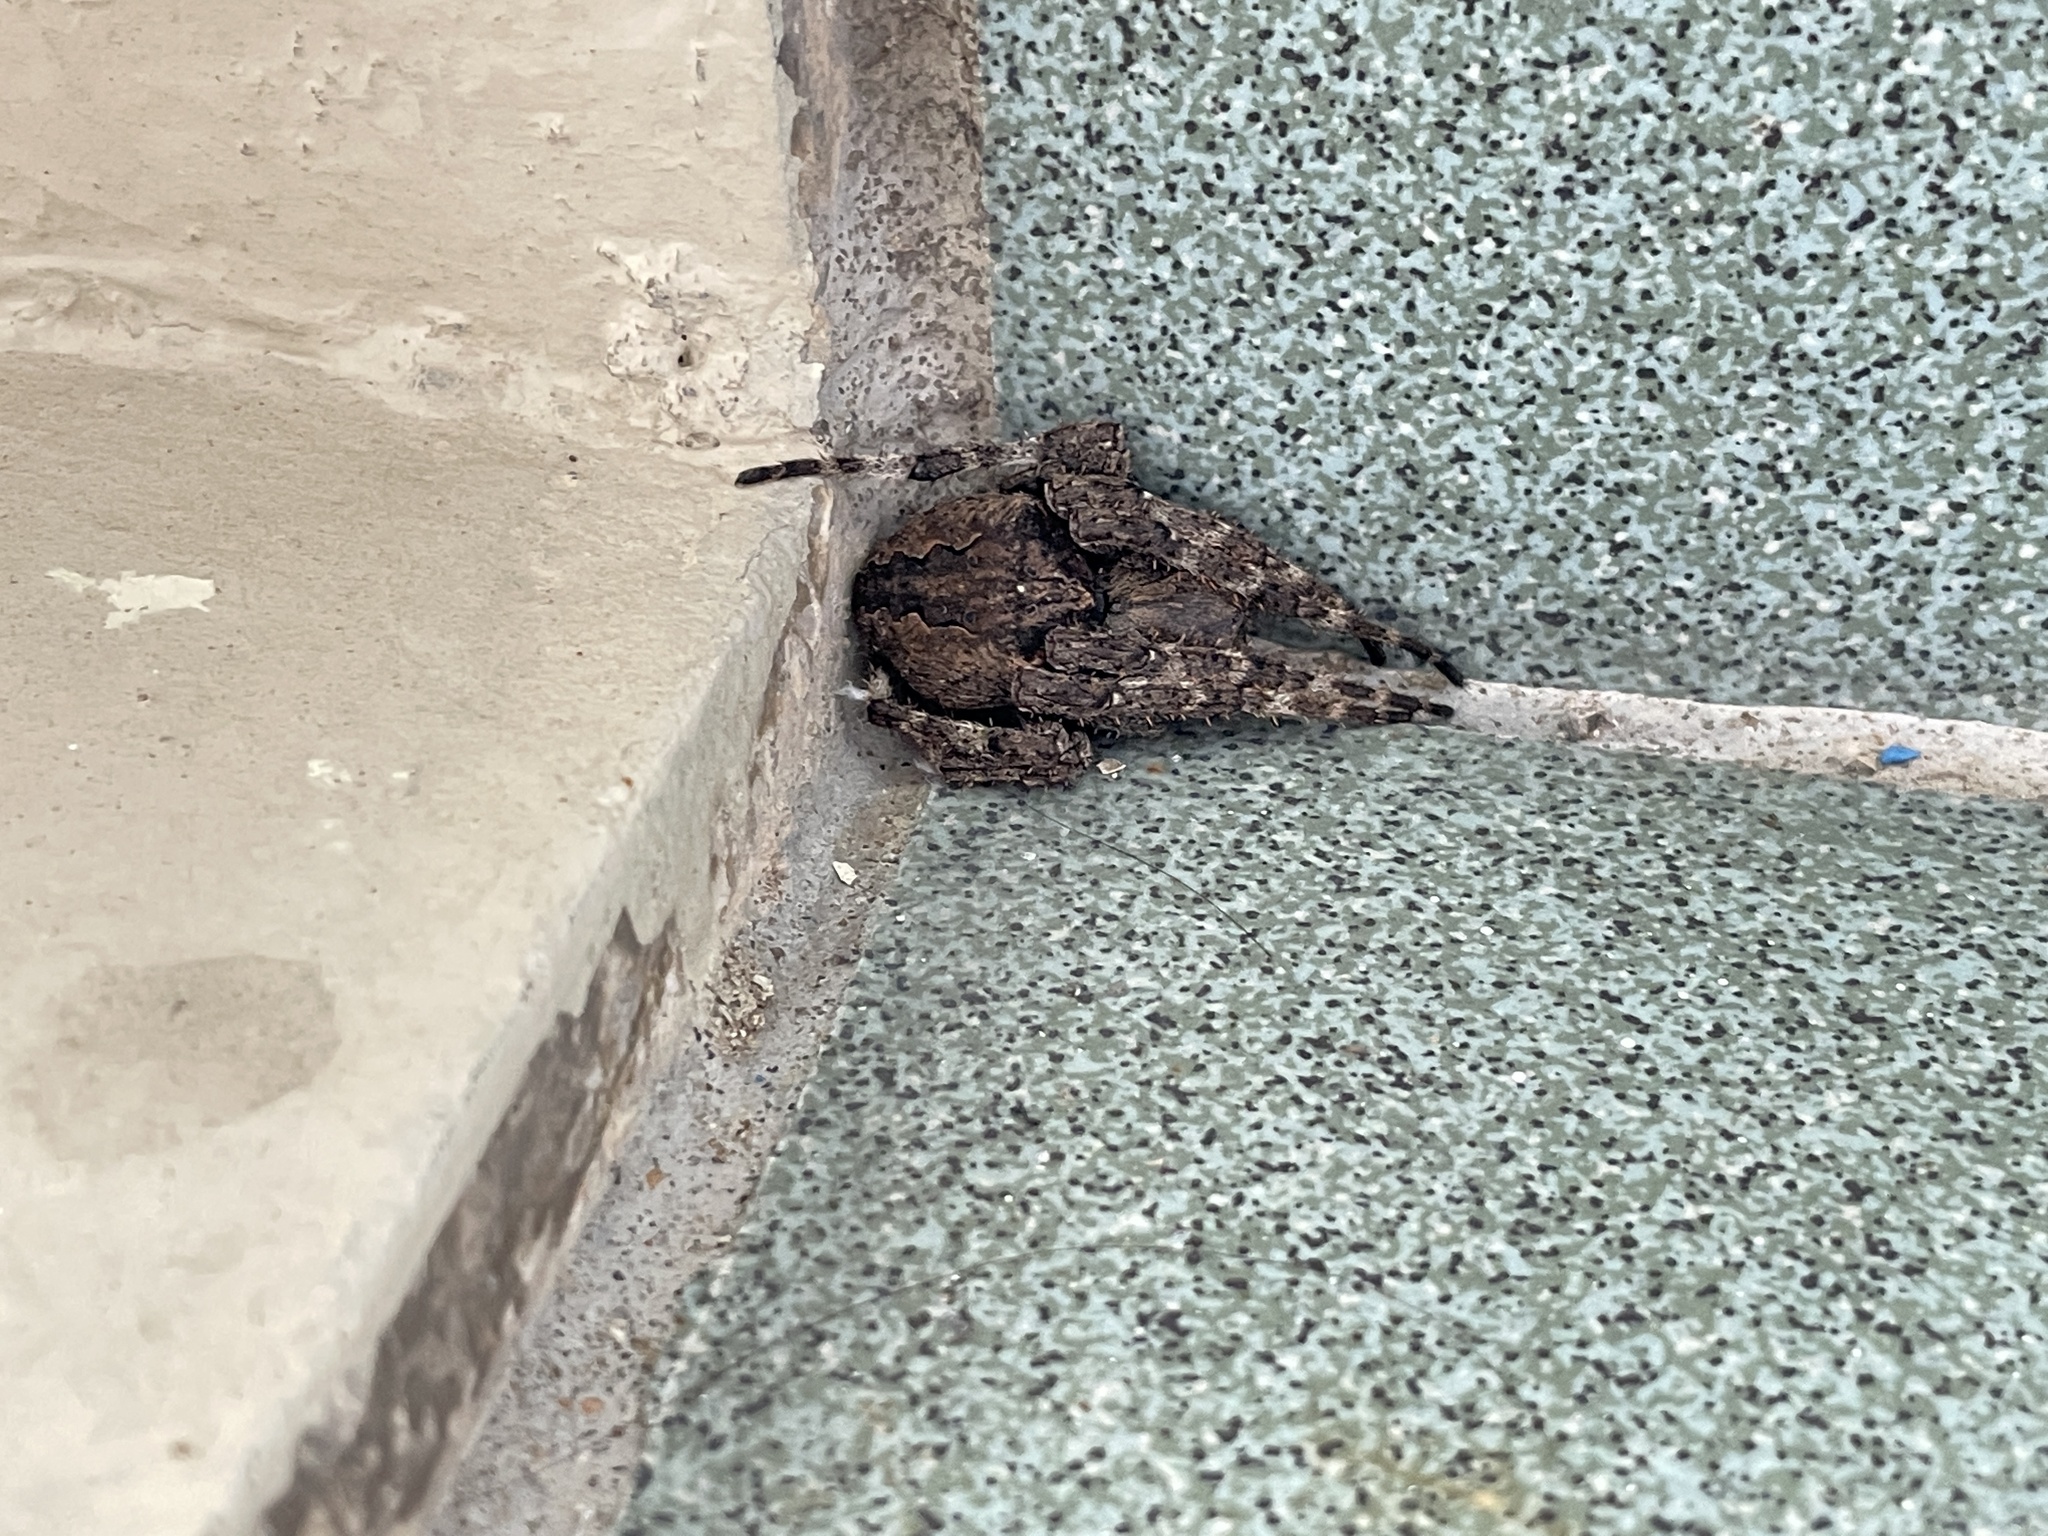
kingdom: Animalia
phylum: Arthropoda
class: Arachnida
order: Araneae
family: Araneidae
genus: Araneus
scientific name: Araneus ventricosus
